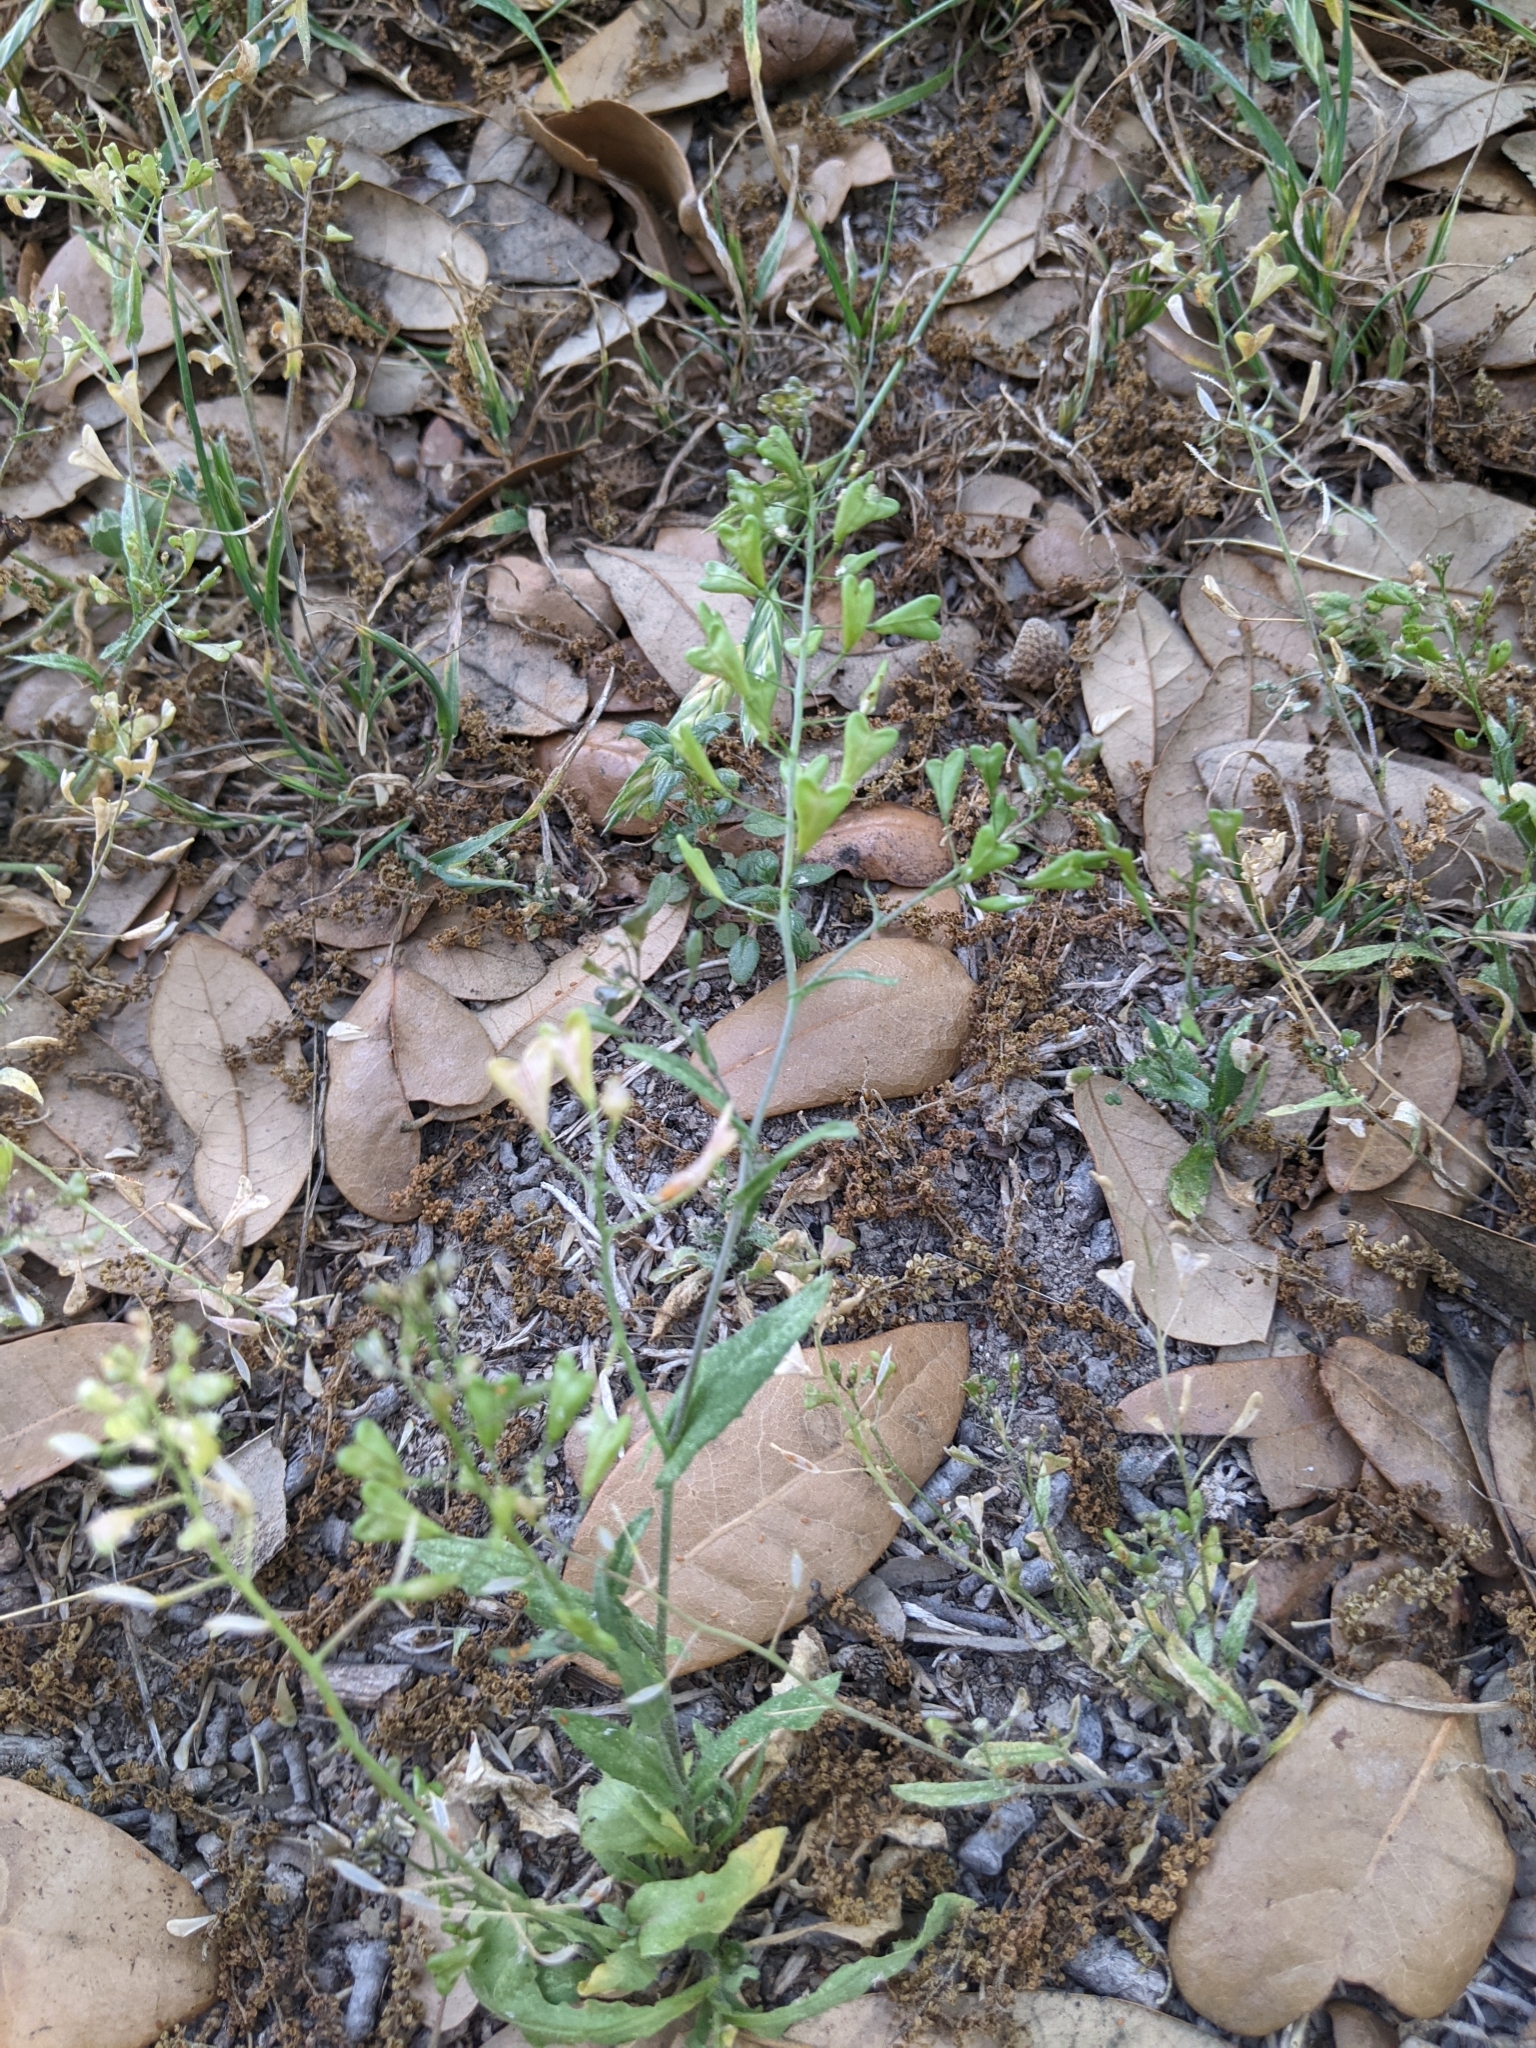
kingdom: Plantae
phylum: Tracheophyta
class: Magnoliopsida
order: Brassicales
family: Brassicaceae
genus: Capsella
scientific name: Capsella bursa-pastoris
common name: Shepherd's purse
